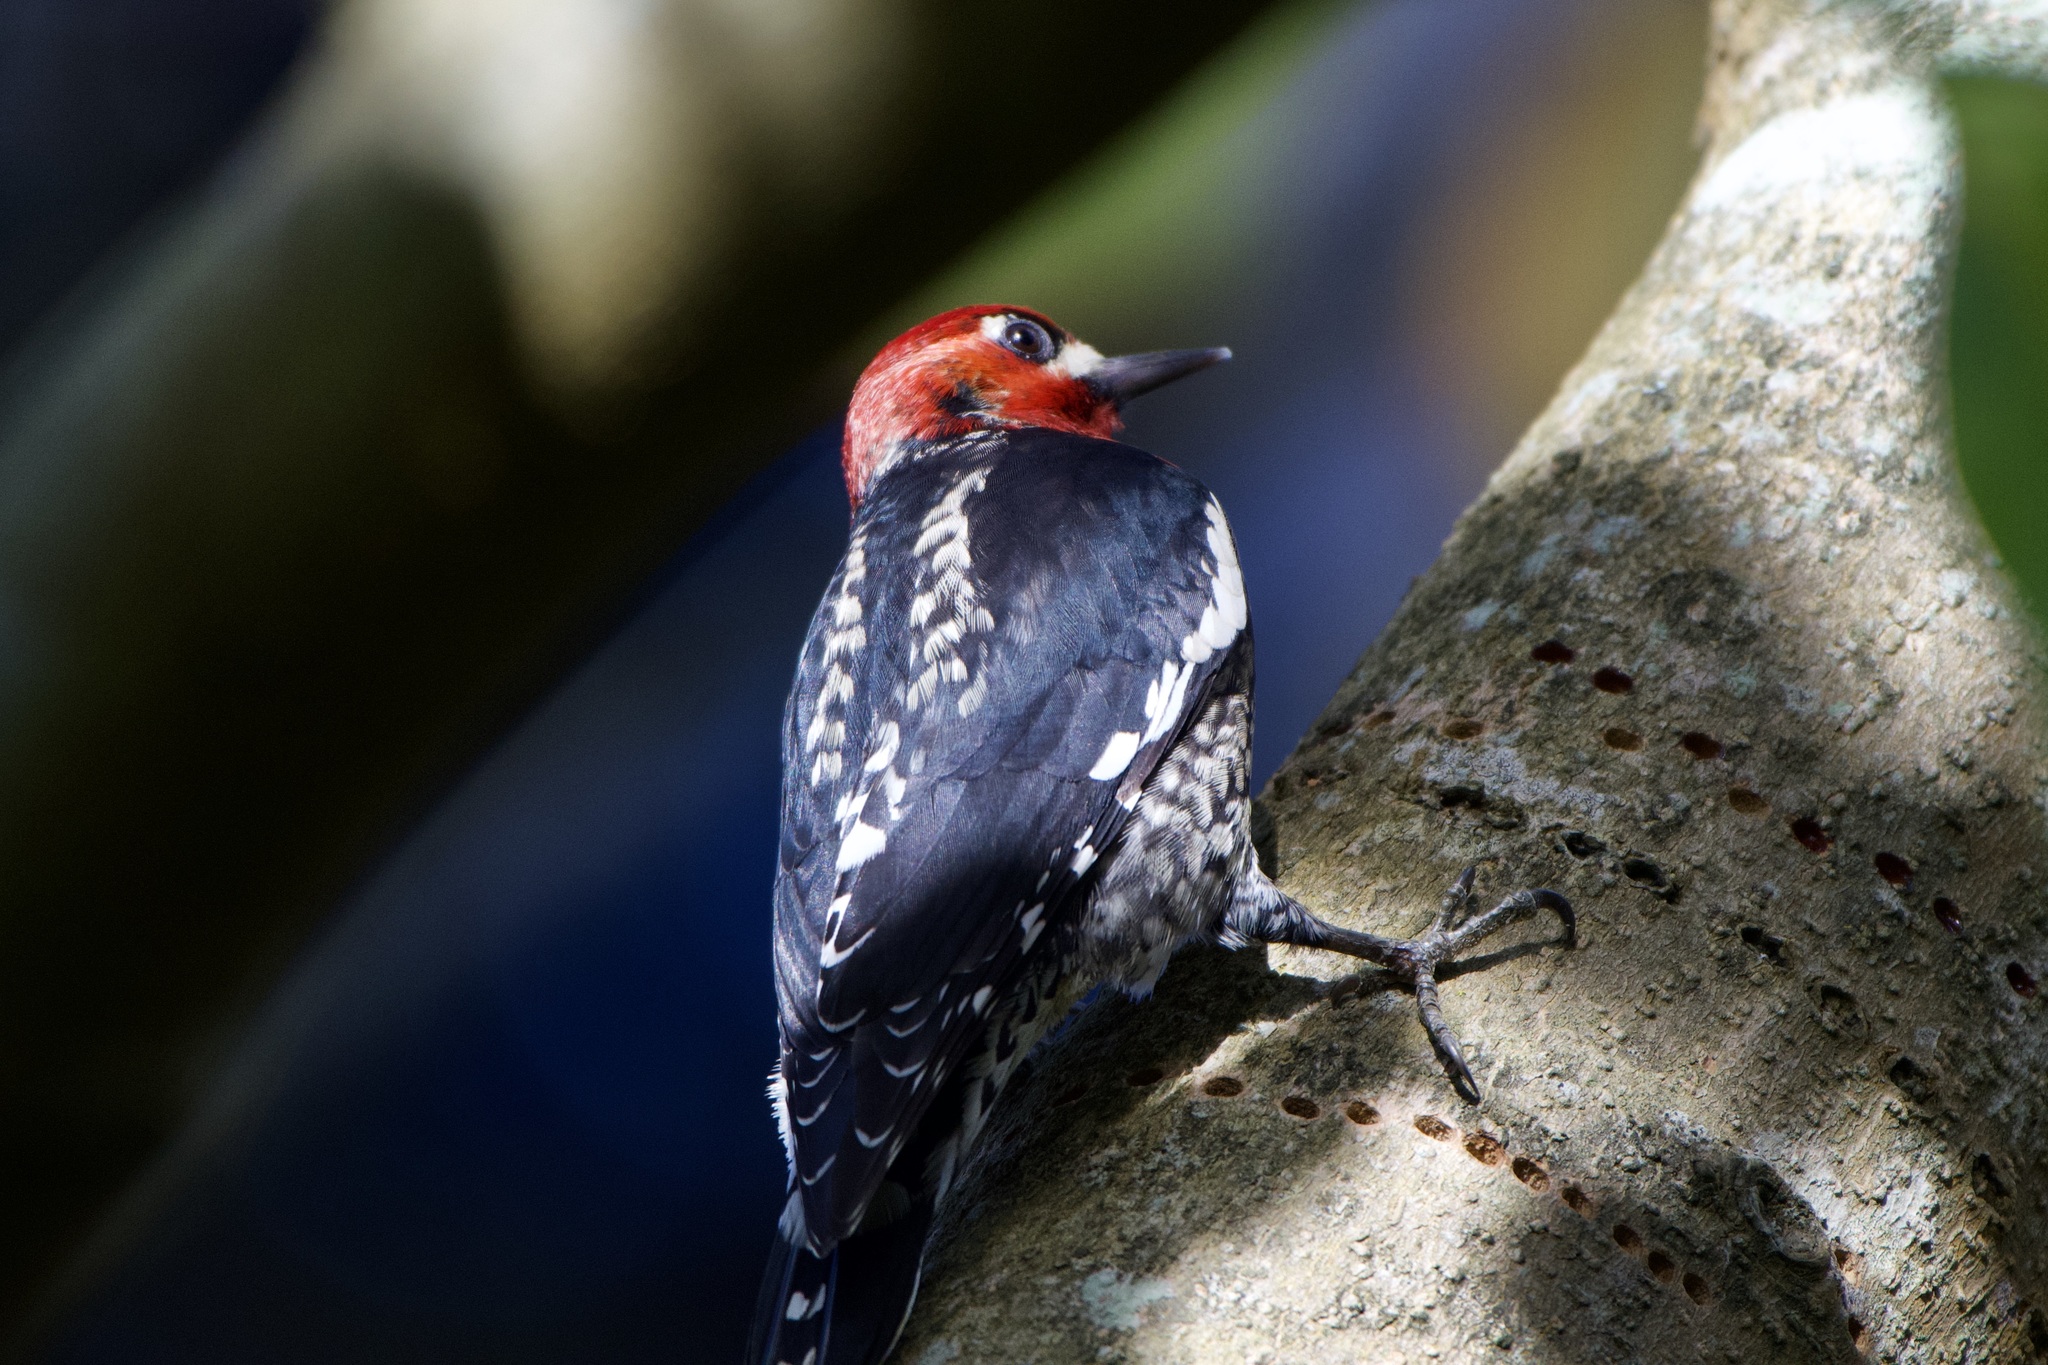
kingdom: Animalia
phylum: Chordata
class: Aves
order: Piciformes
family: Picidae
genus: Sphyrapicus
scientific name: Sphyrapicus ruber
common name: Red-breasted sapsucker
